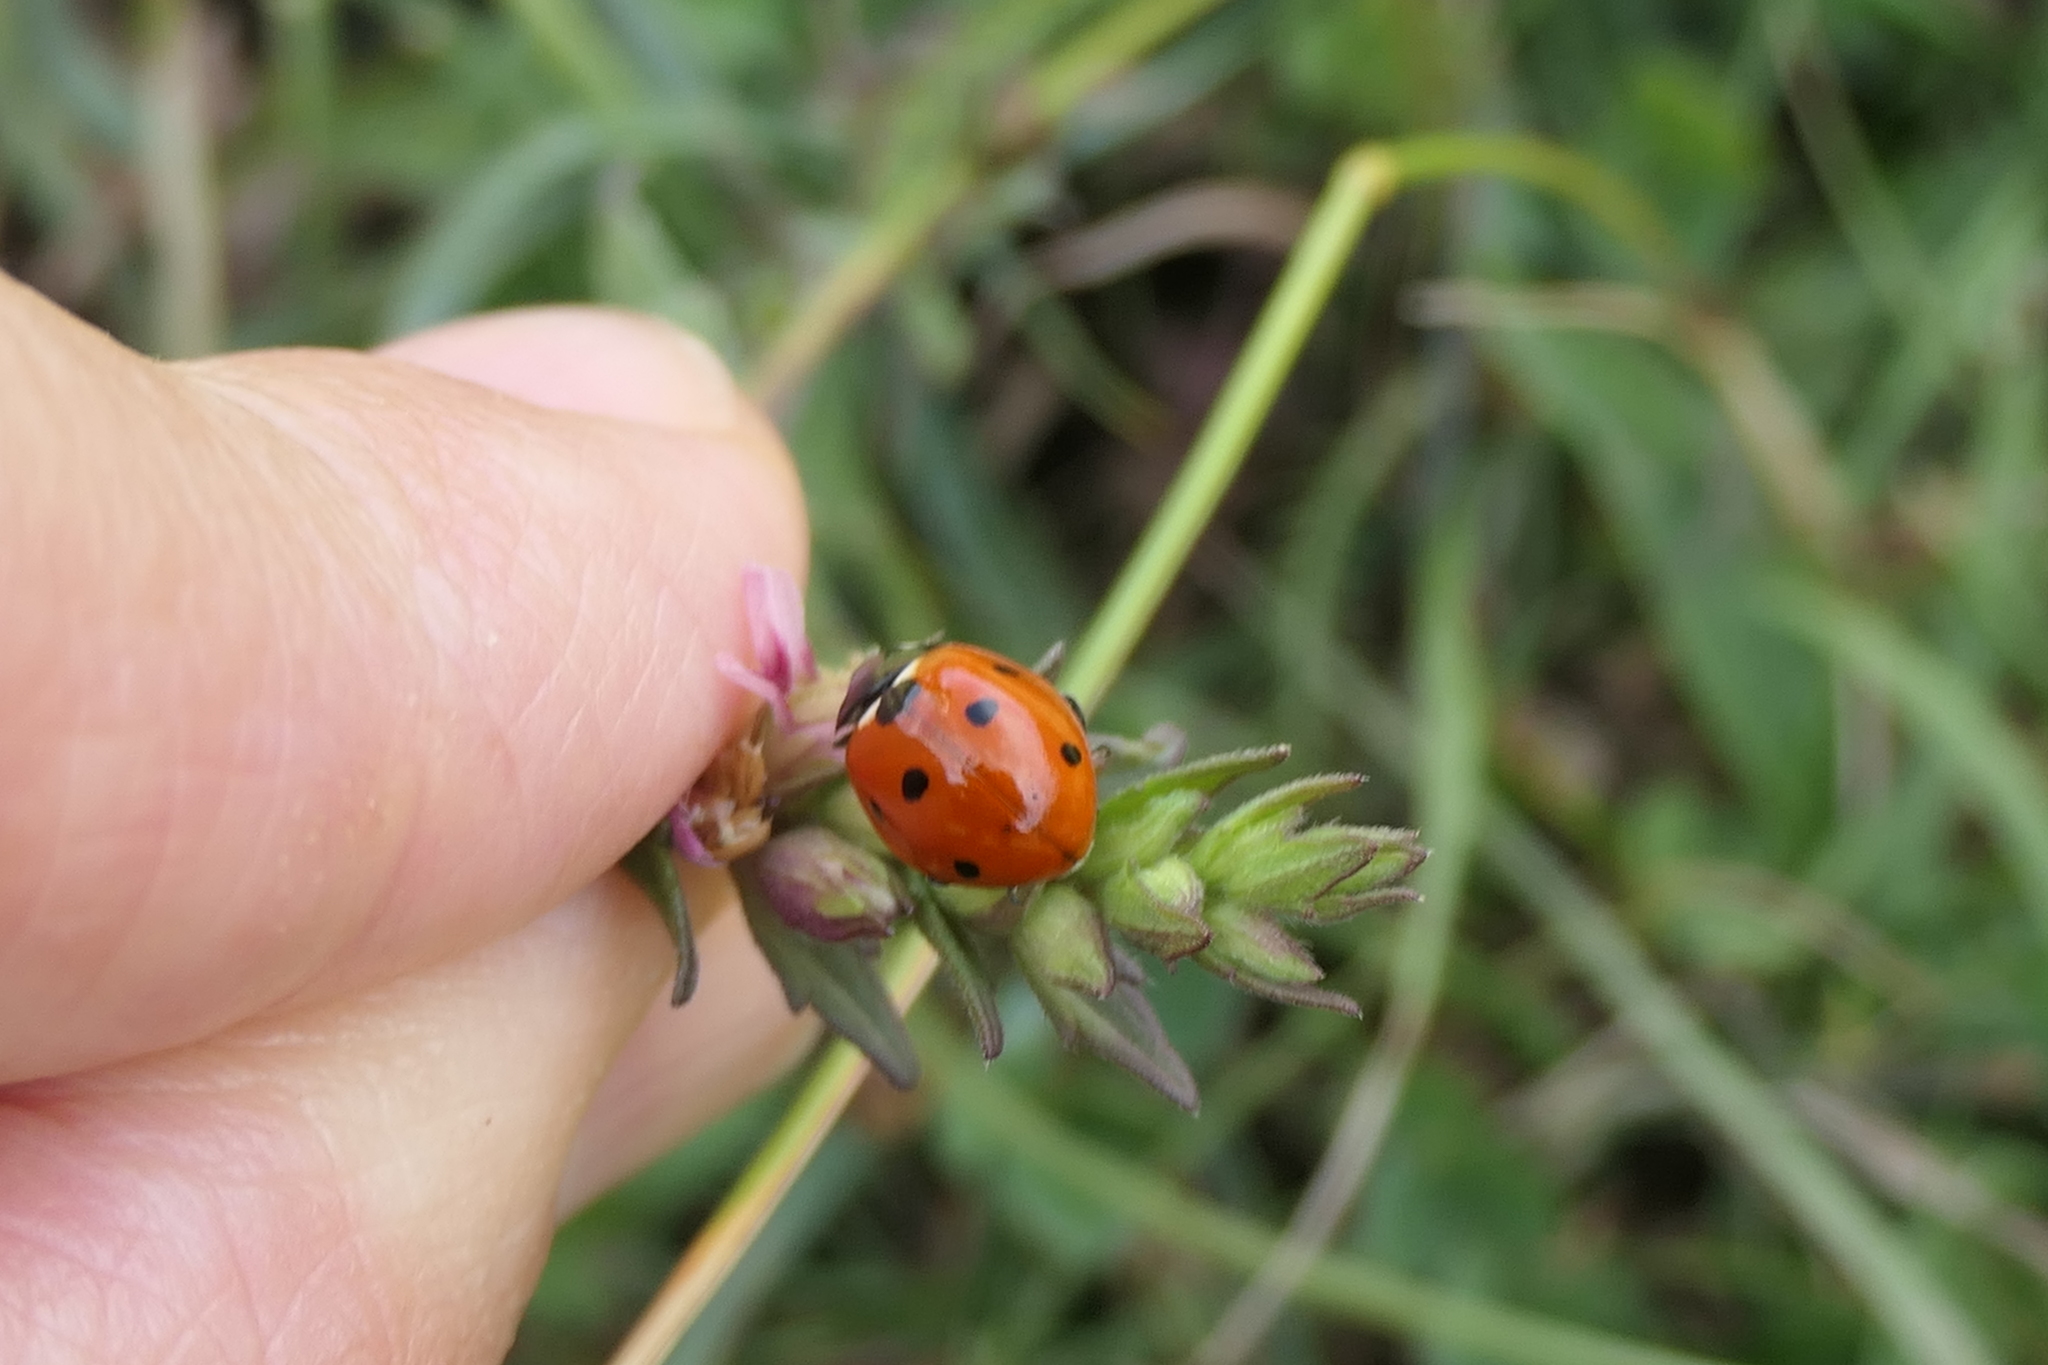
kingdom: Animalia
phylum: Arthropoda
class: Insecta
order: Coleoptera
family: Coccinellidae
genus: Coccinella
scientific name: Coccinella septempunctata
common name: Sevenspotted lady beetle
